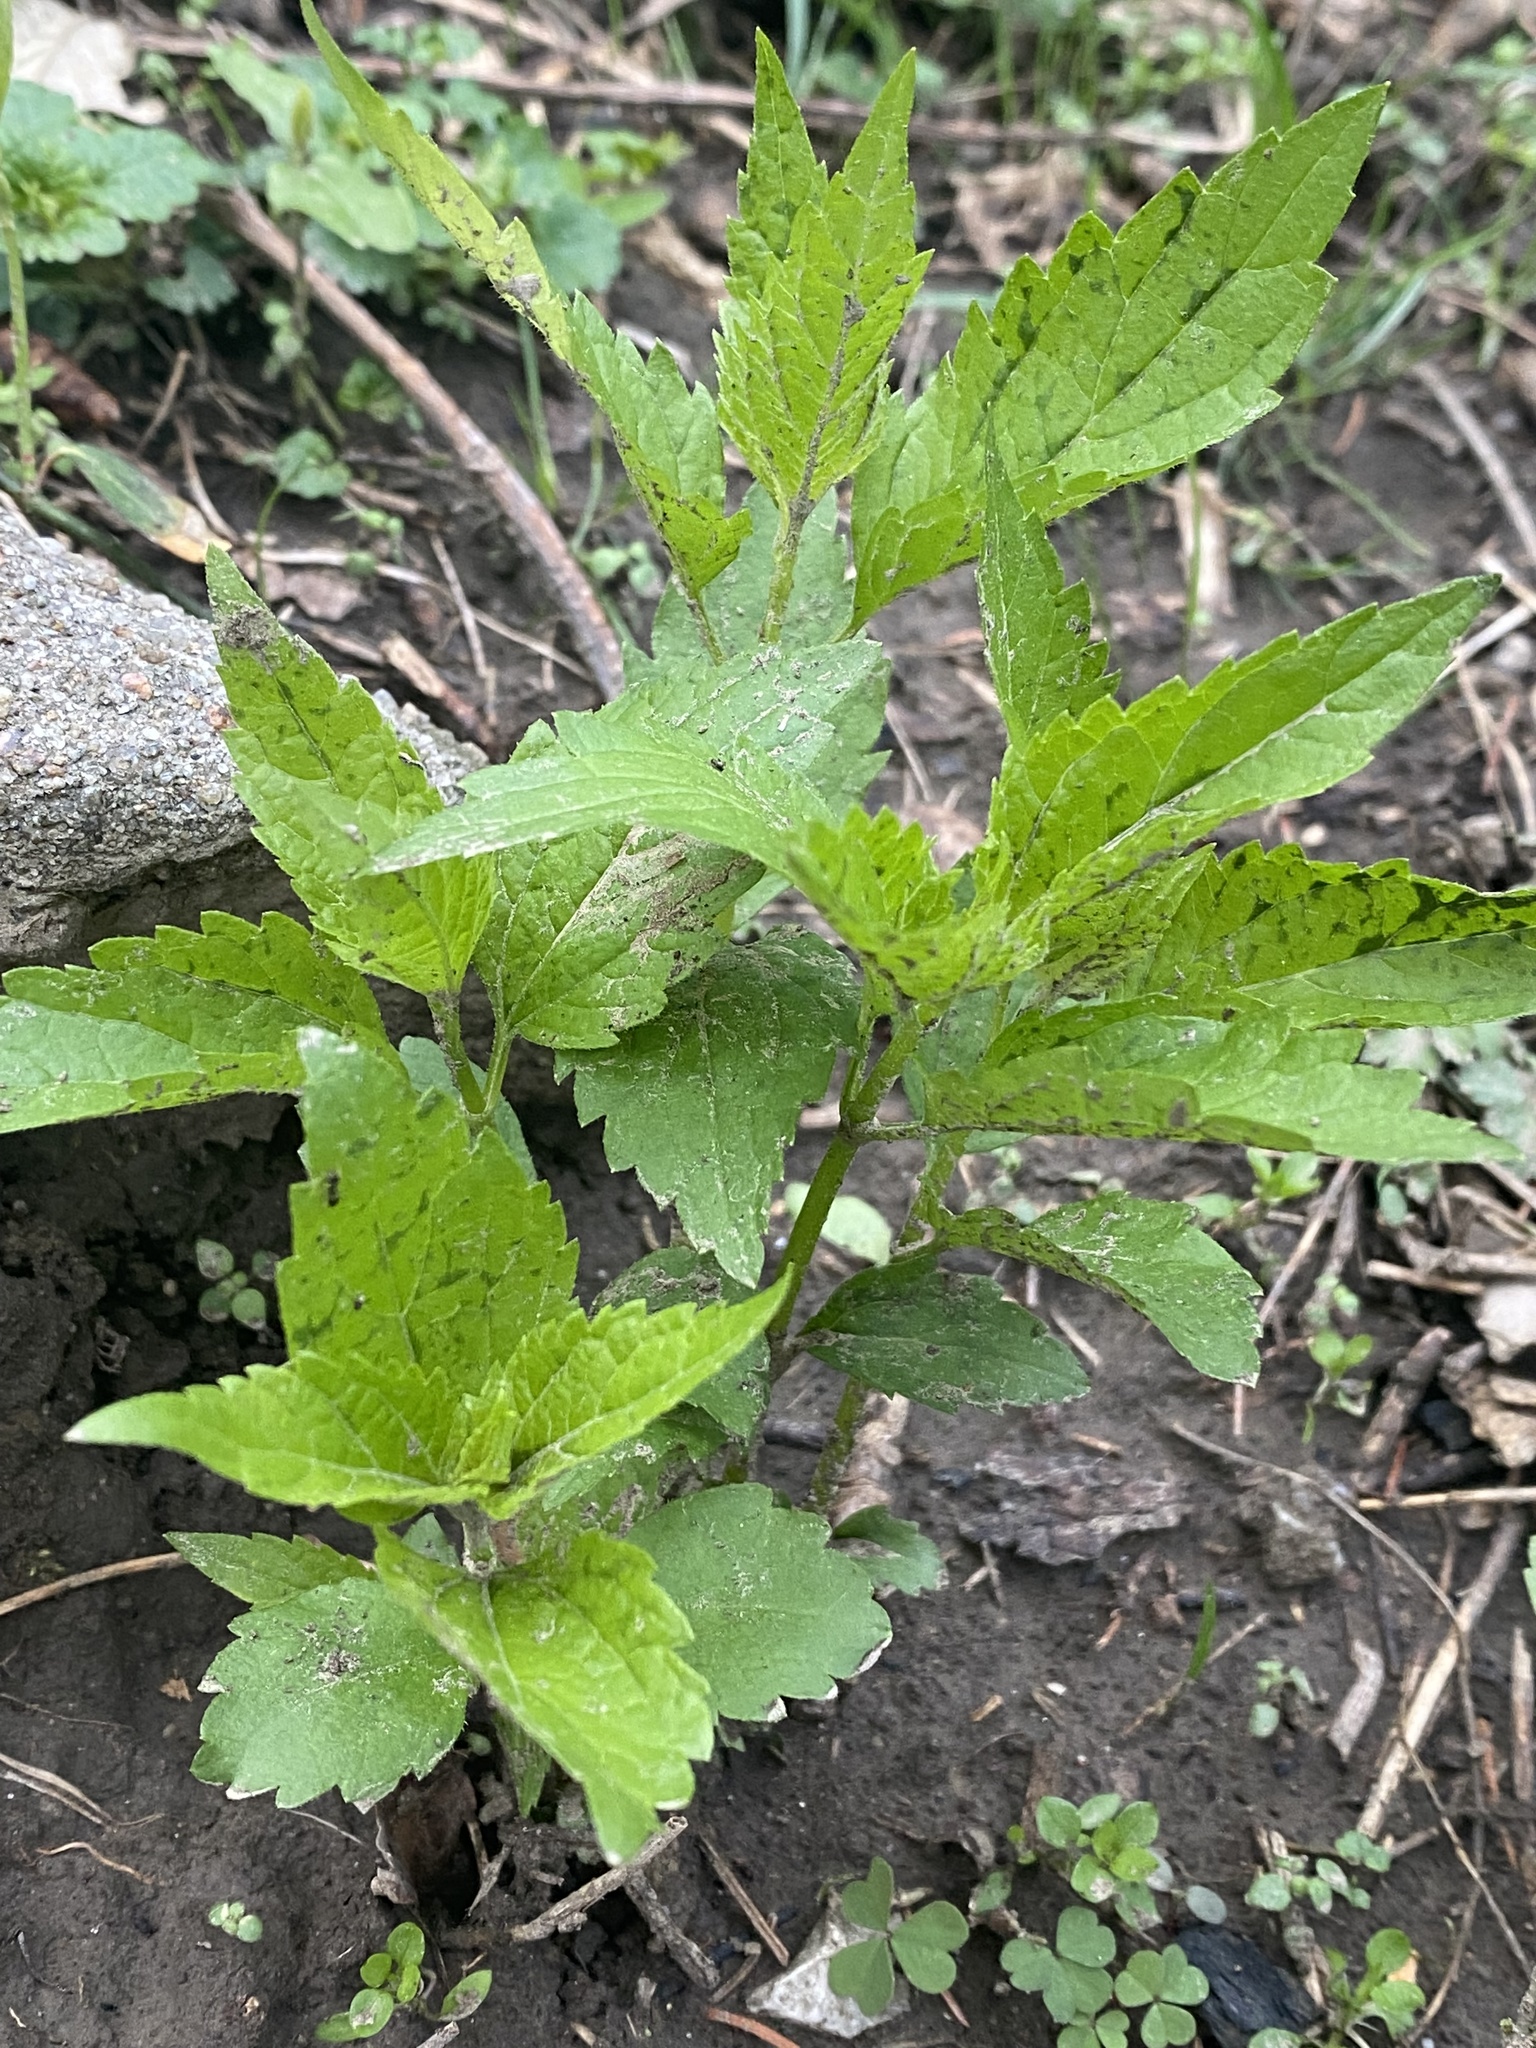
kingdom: Plantae
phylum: Tracheophyta
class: Magnoliopsida
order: Asterales
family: Asteraceae
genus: Ageratina
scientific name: Ageratina altissima
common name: White snakeroot
